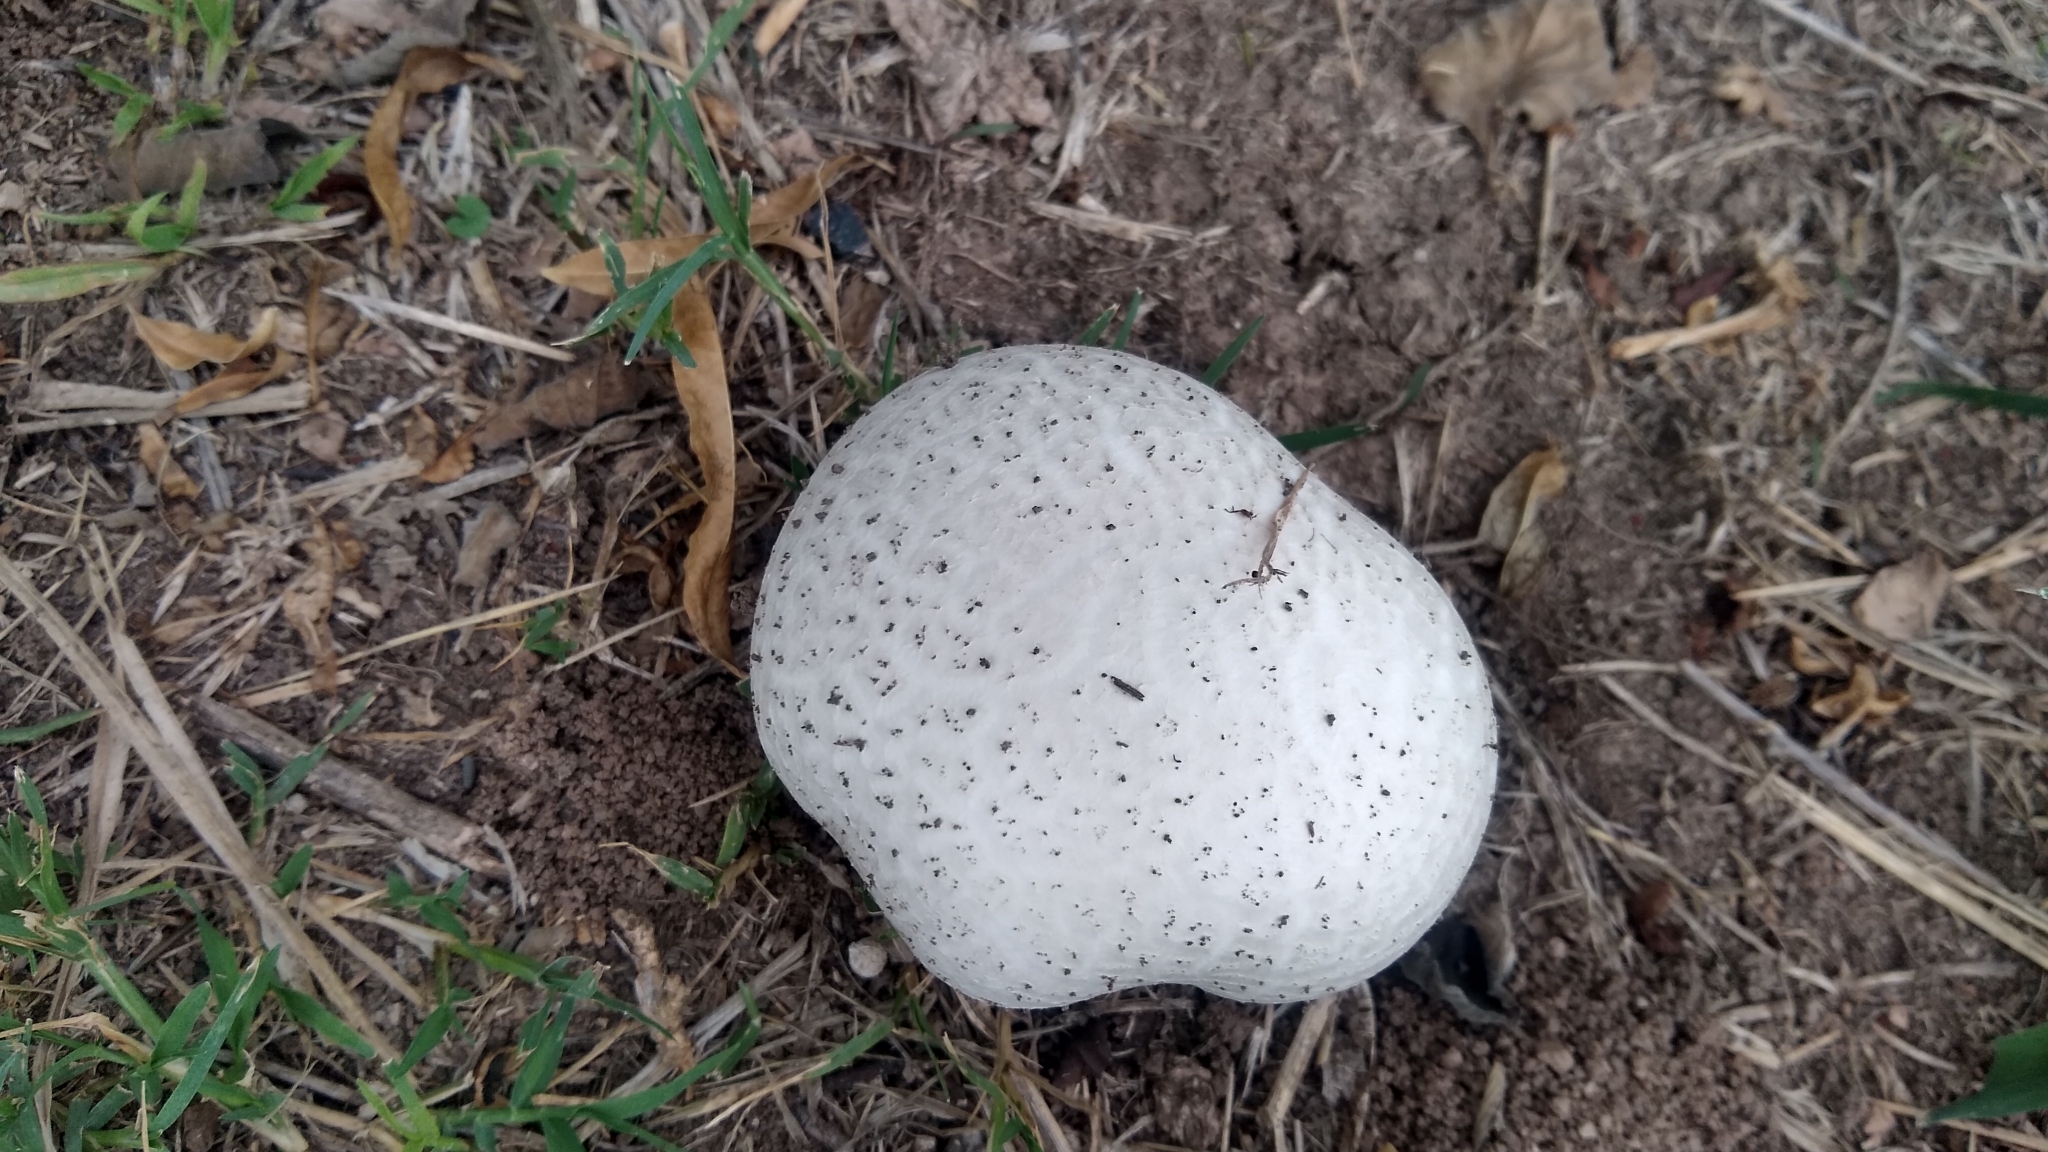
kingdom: Fungi
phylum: Basidiomycota
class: Agaricomycetes
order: Agaricales
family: Lycoperdaceae
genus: Calvatia
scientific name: Calvatia cyathiformis
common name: Purple-spored puffball
